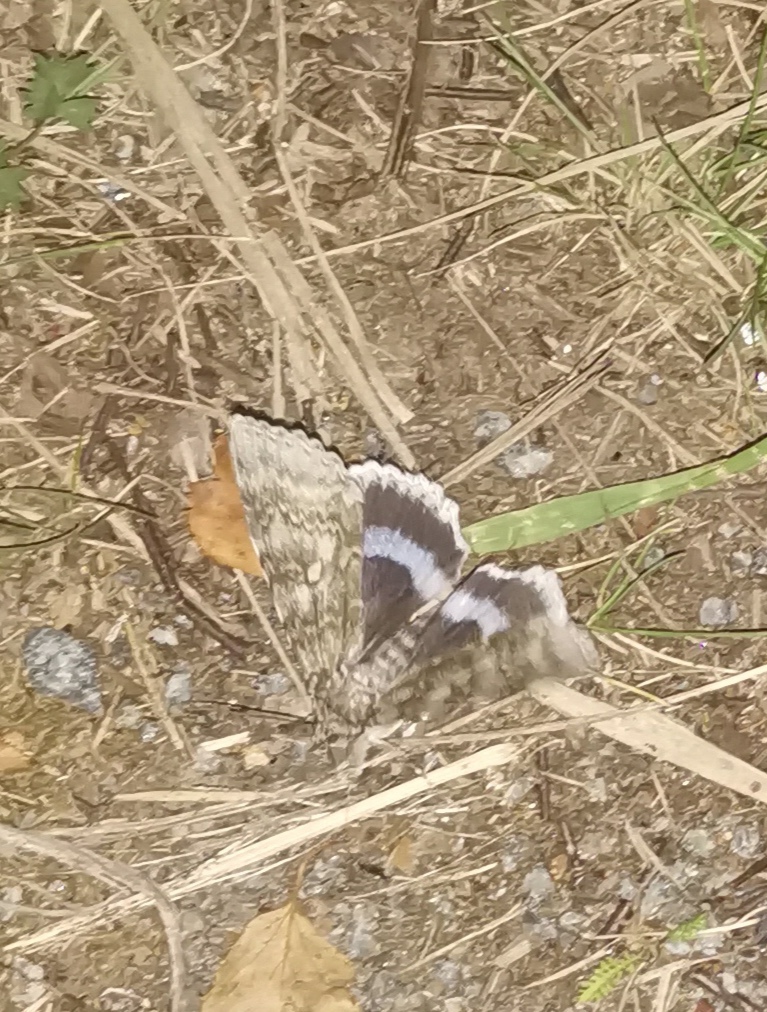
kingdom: Animalia
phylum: Arthropoda
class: Insecta
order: Lepidoptera
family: Erebidae
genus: Catocala
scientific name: Catocala fraxini
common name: Clifden nonpareil
